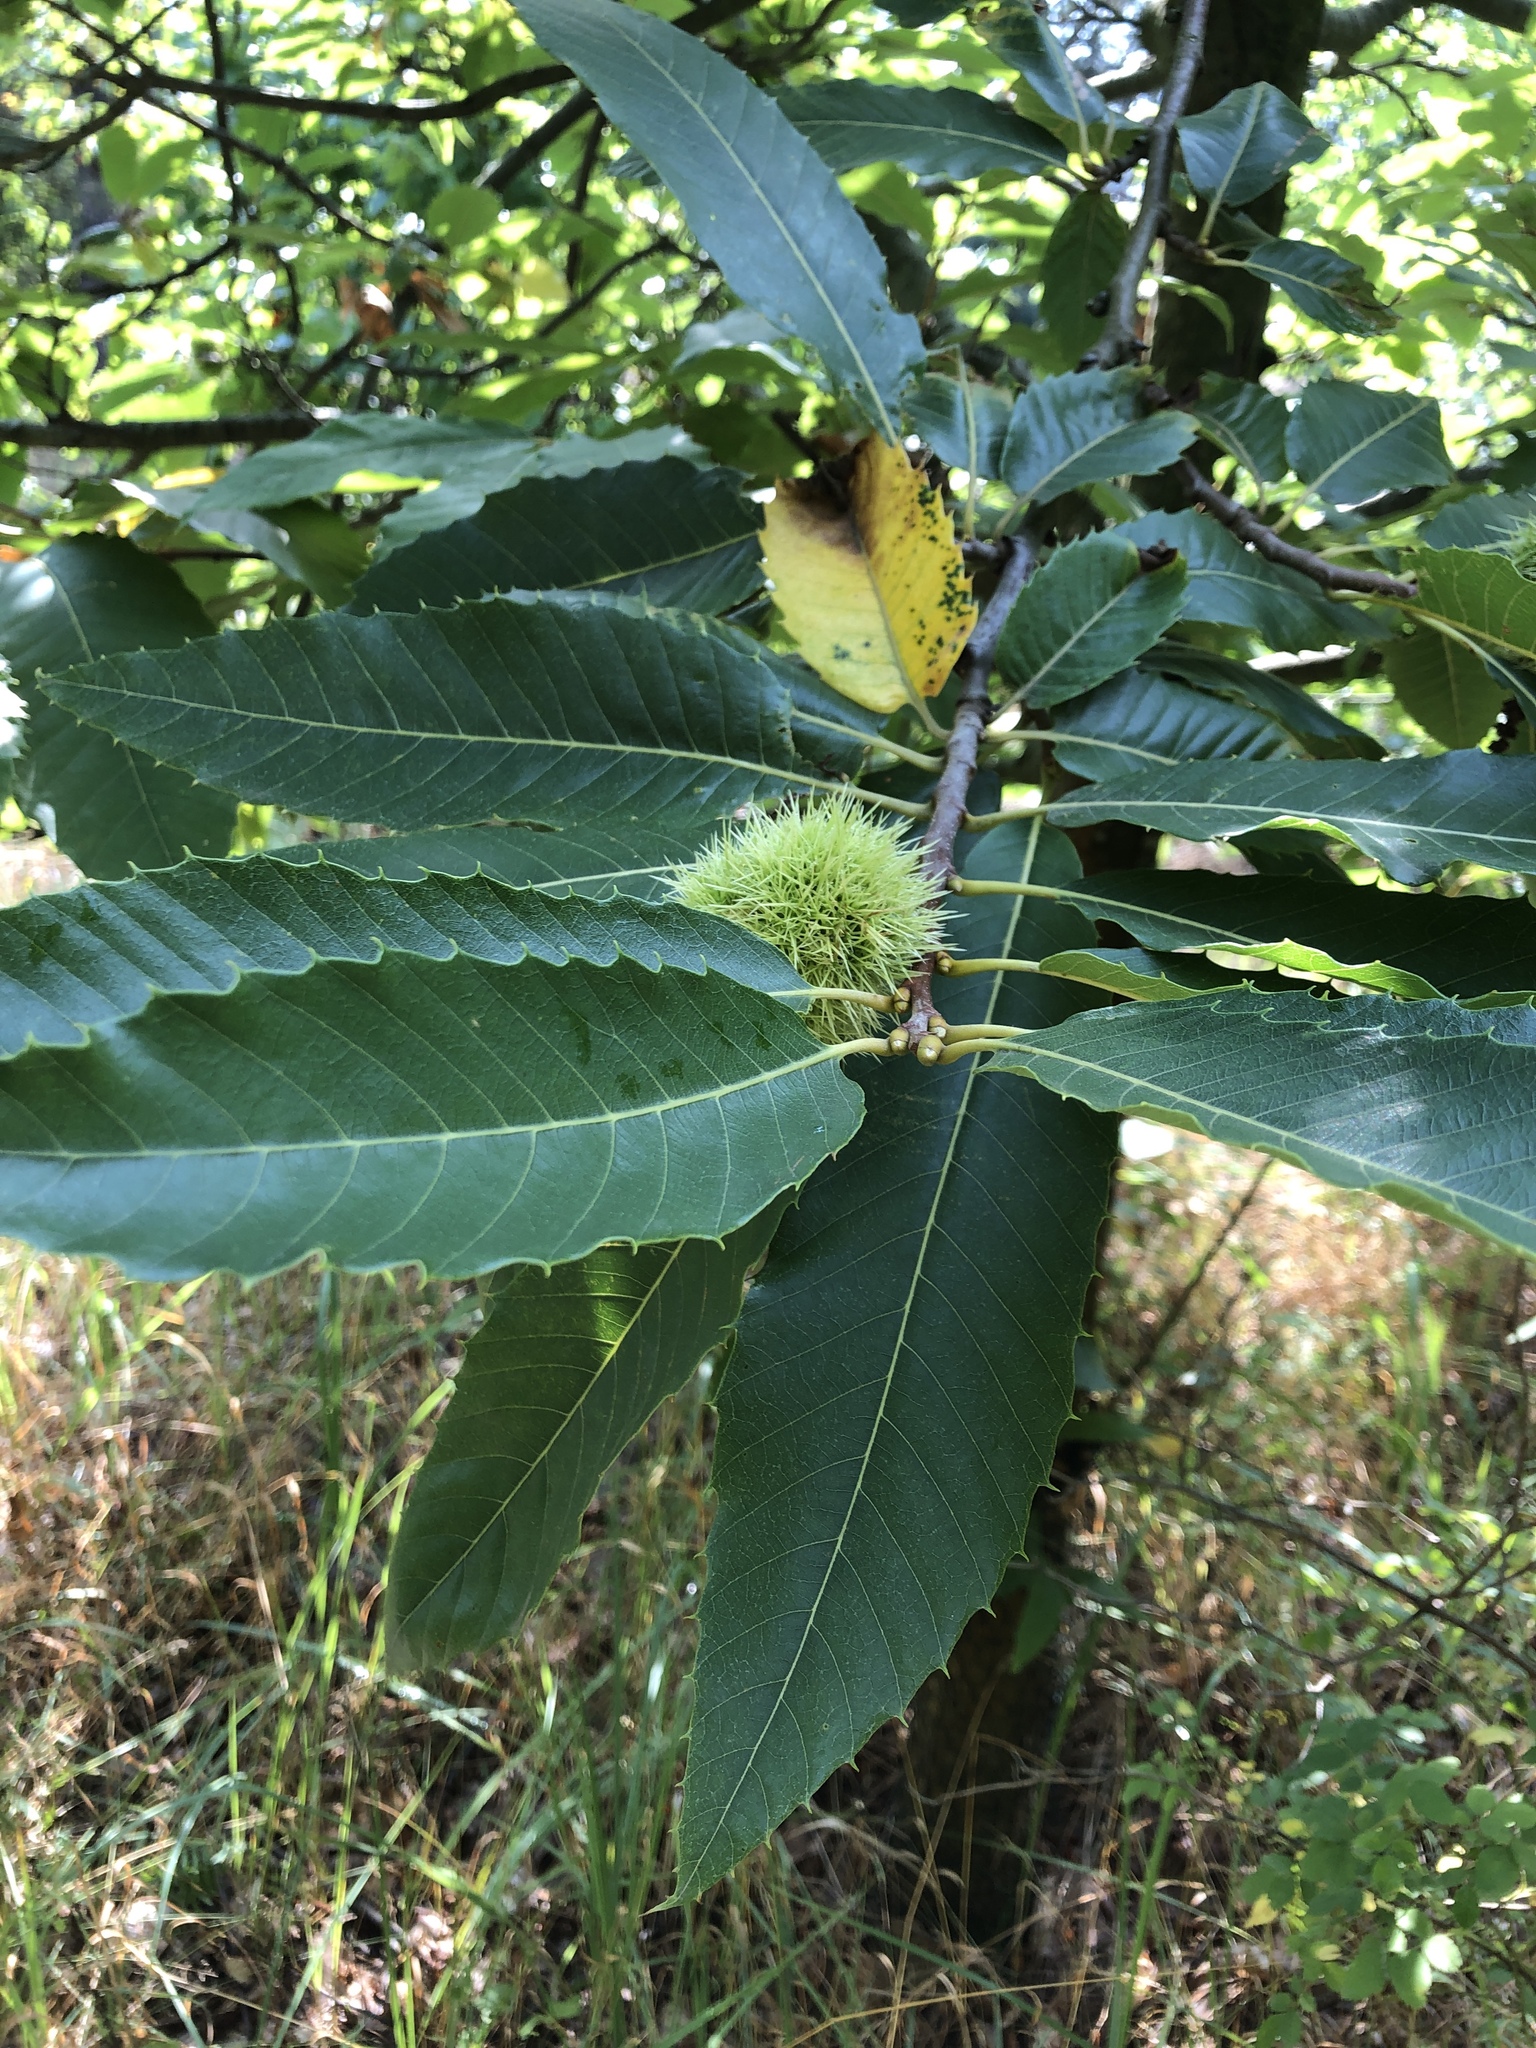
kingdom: Plantae
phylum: Tracheophyta
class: Magnoliopsida
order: Fagales
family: Fagaceae
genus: Castanea
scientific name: Castanea sativa
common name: Sweet chestnut
